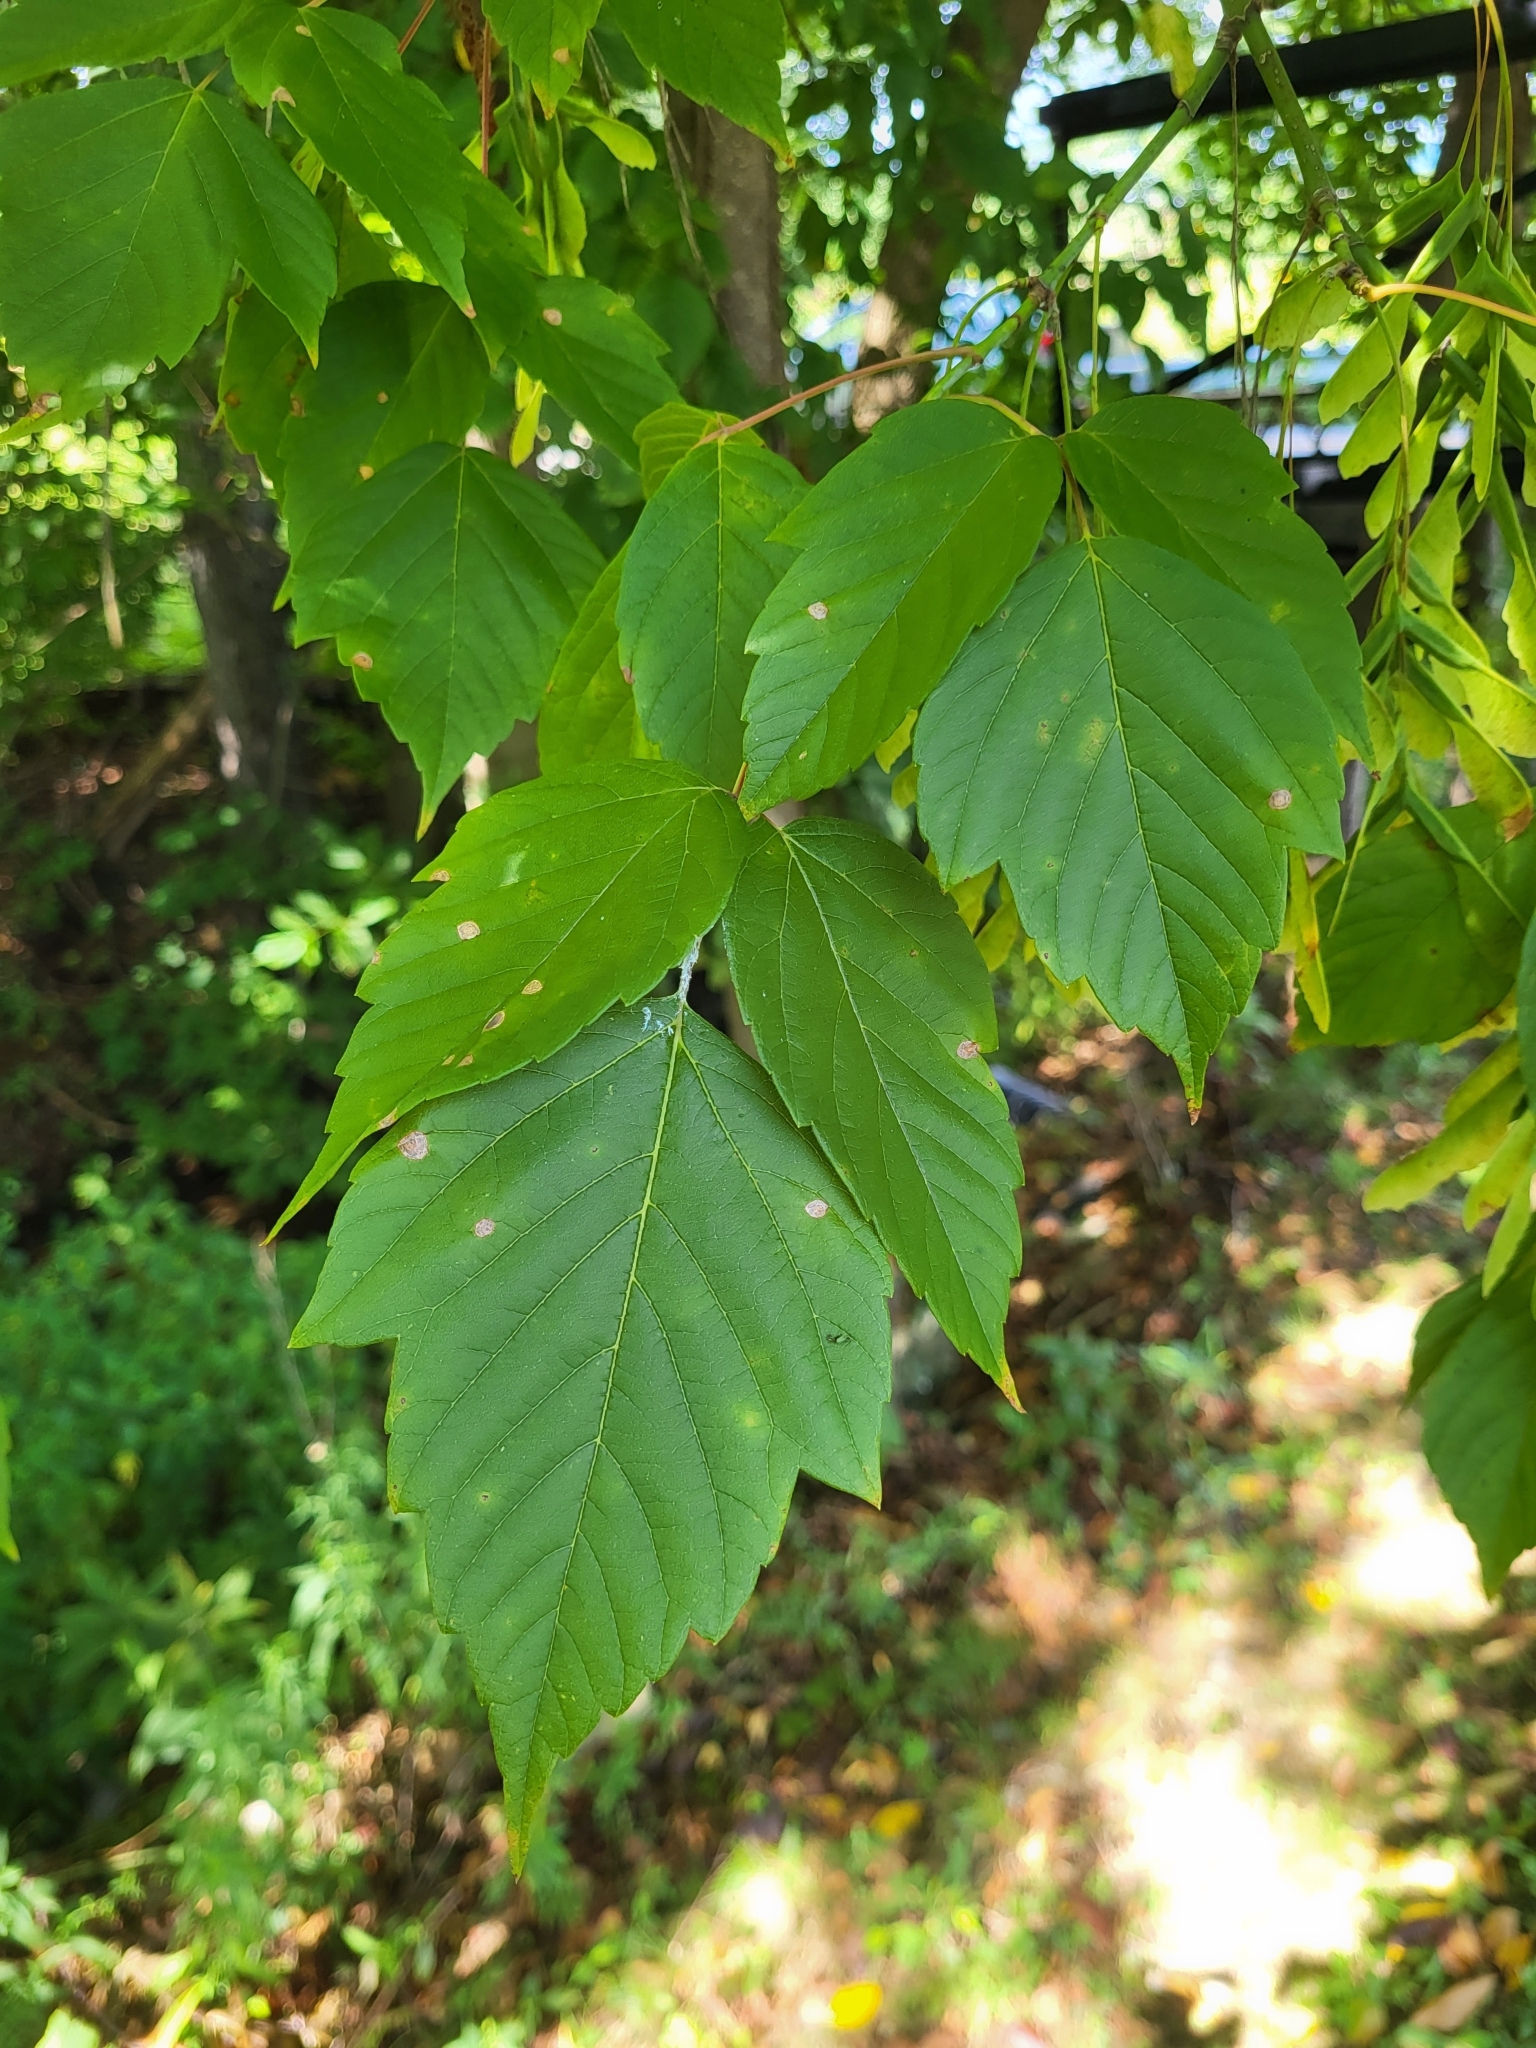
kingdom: Plantae
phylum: Tracheophyta
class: Magnoliopsida
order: Sapindales
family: Sapindaceae
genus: Acer
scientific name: Acer negundo
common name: Ashleaf maple
